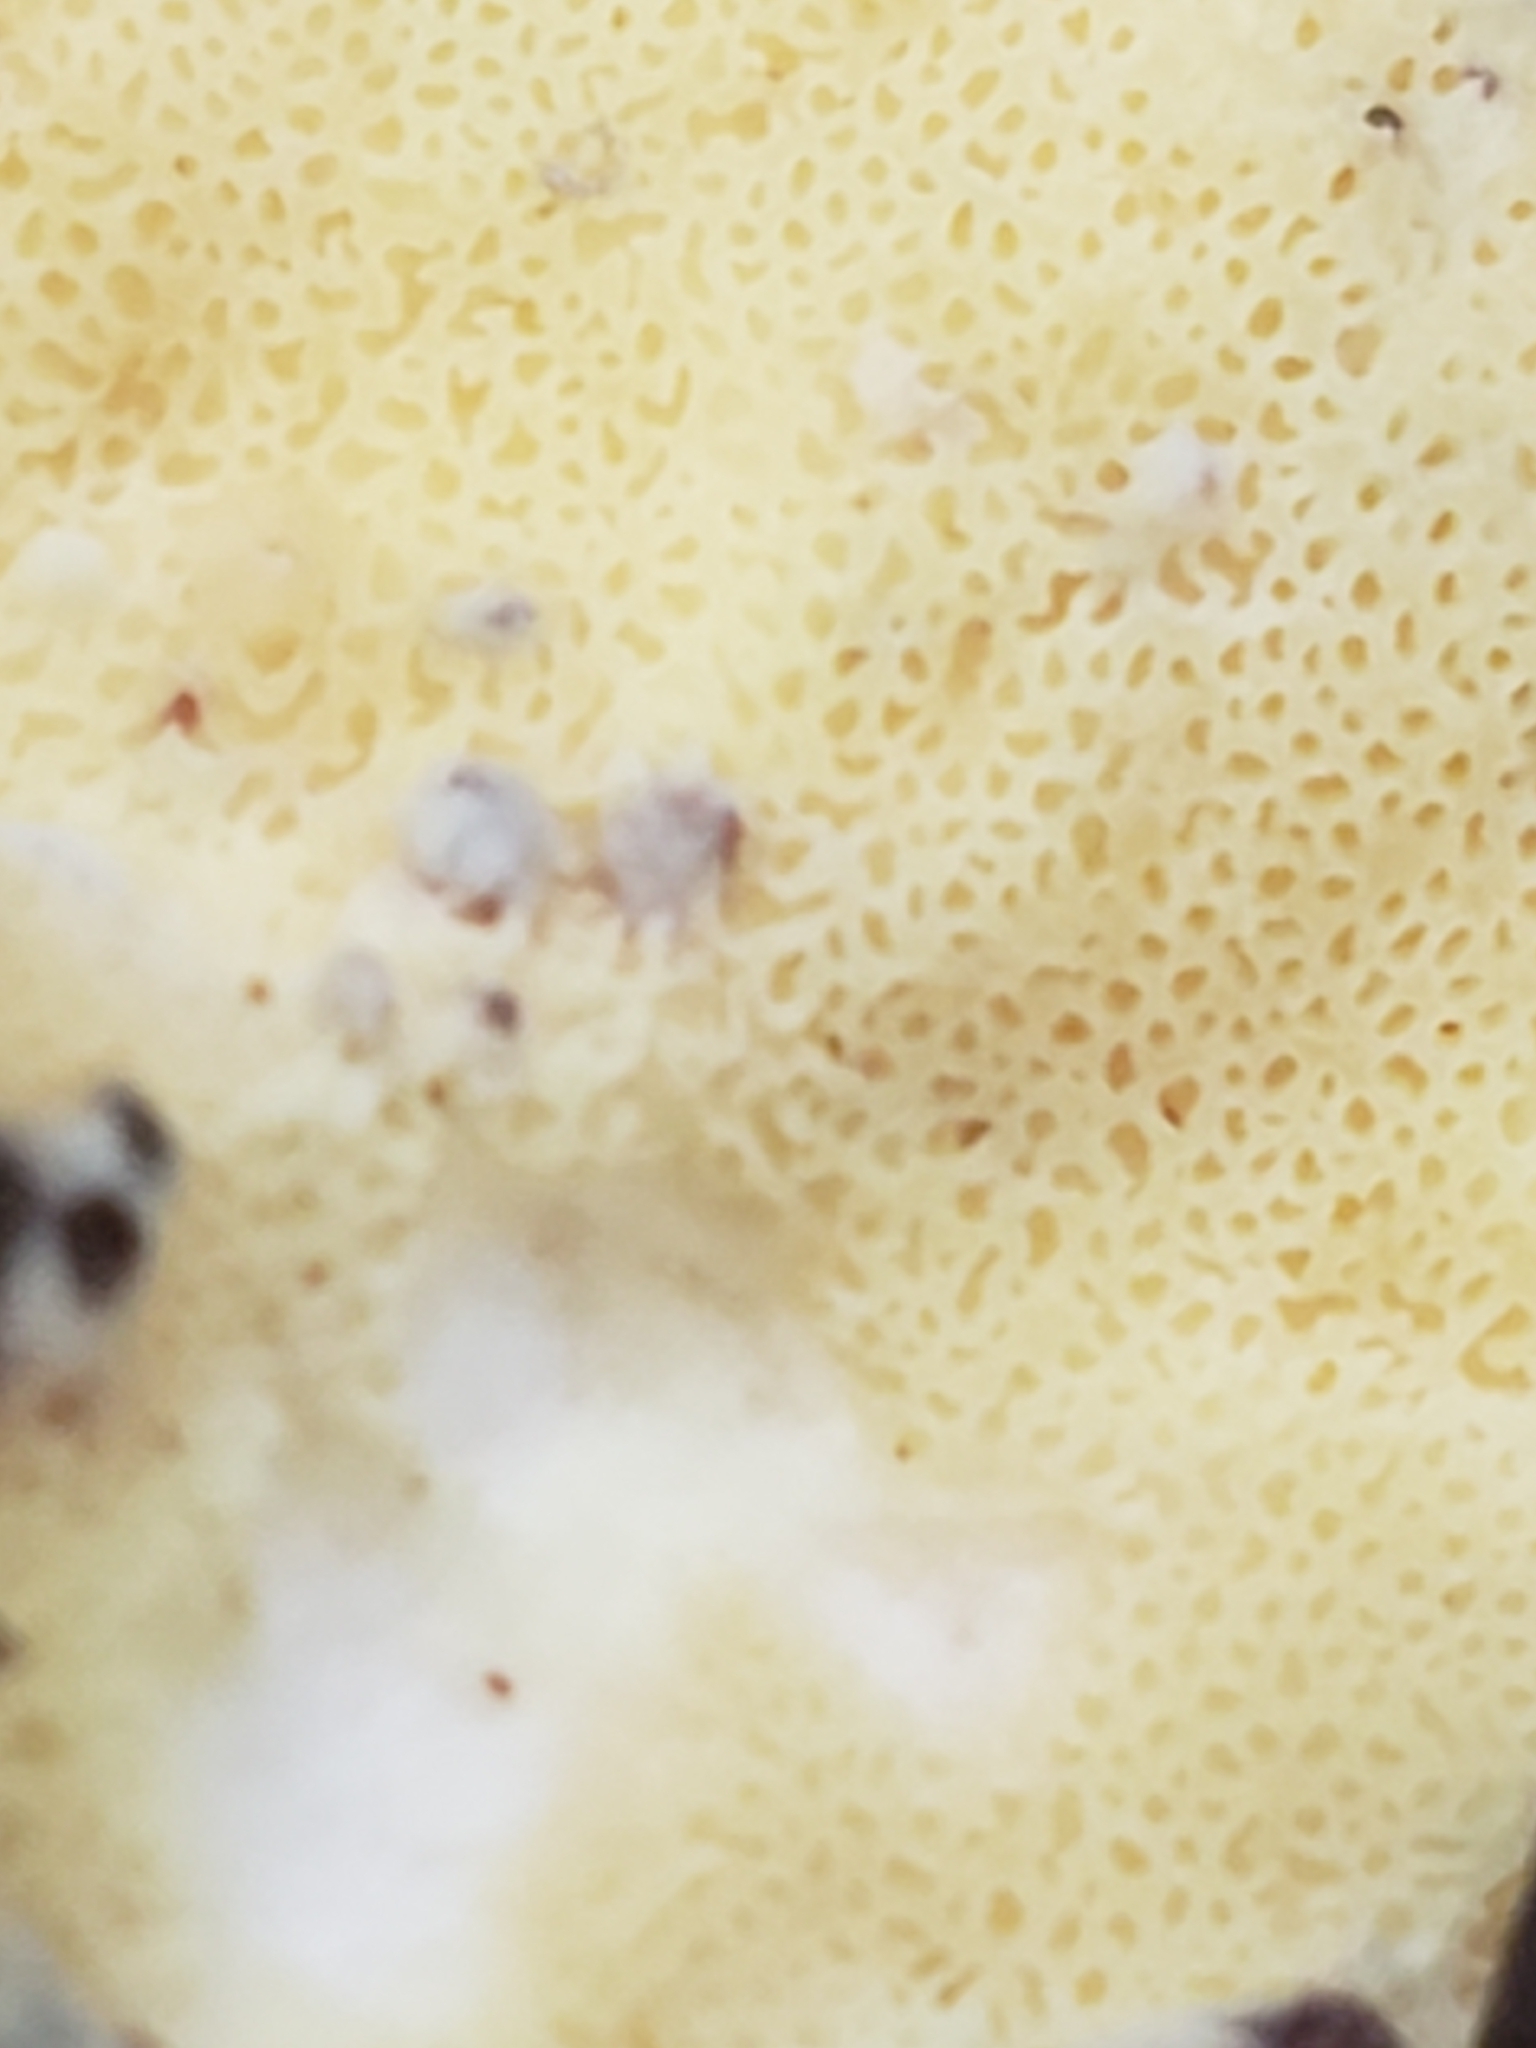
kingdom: Fungi
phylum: Basidiomycota
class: Agaricomycetes
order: Polyporales
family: Laetiporaceae
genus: Laetiporus
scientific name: Laetiporus sulphureus
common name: Chicken of the woods
